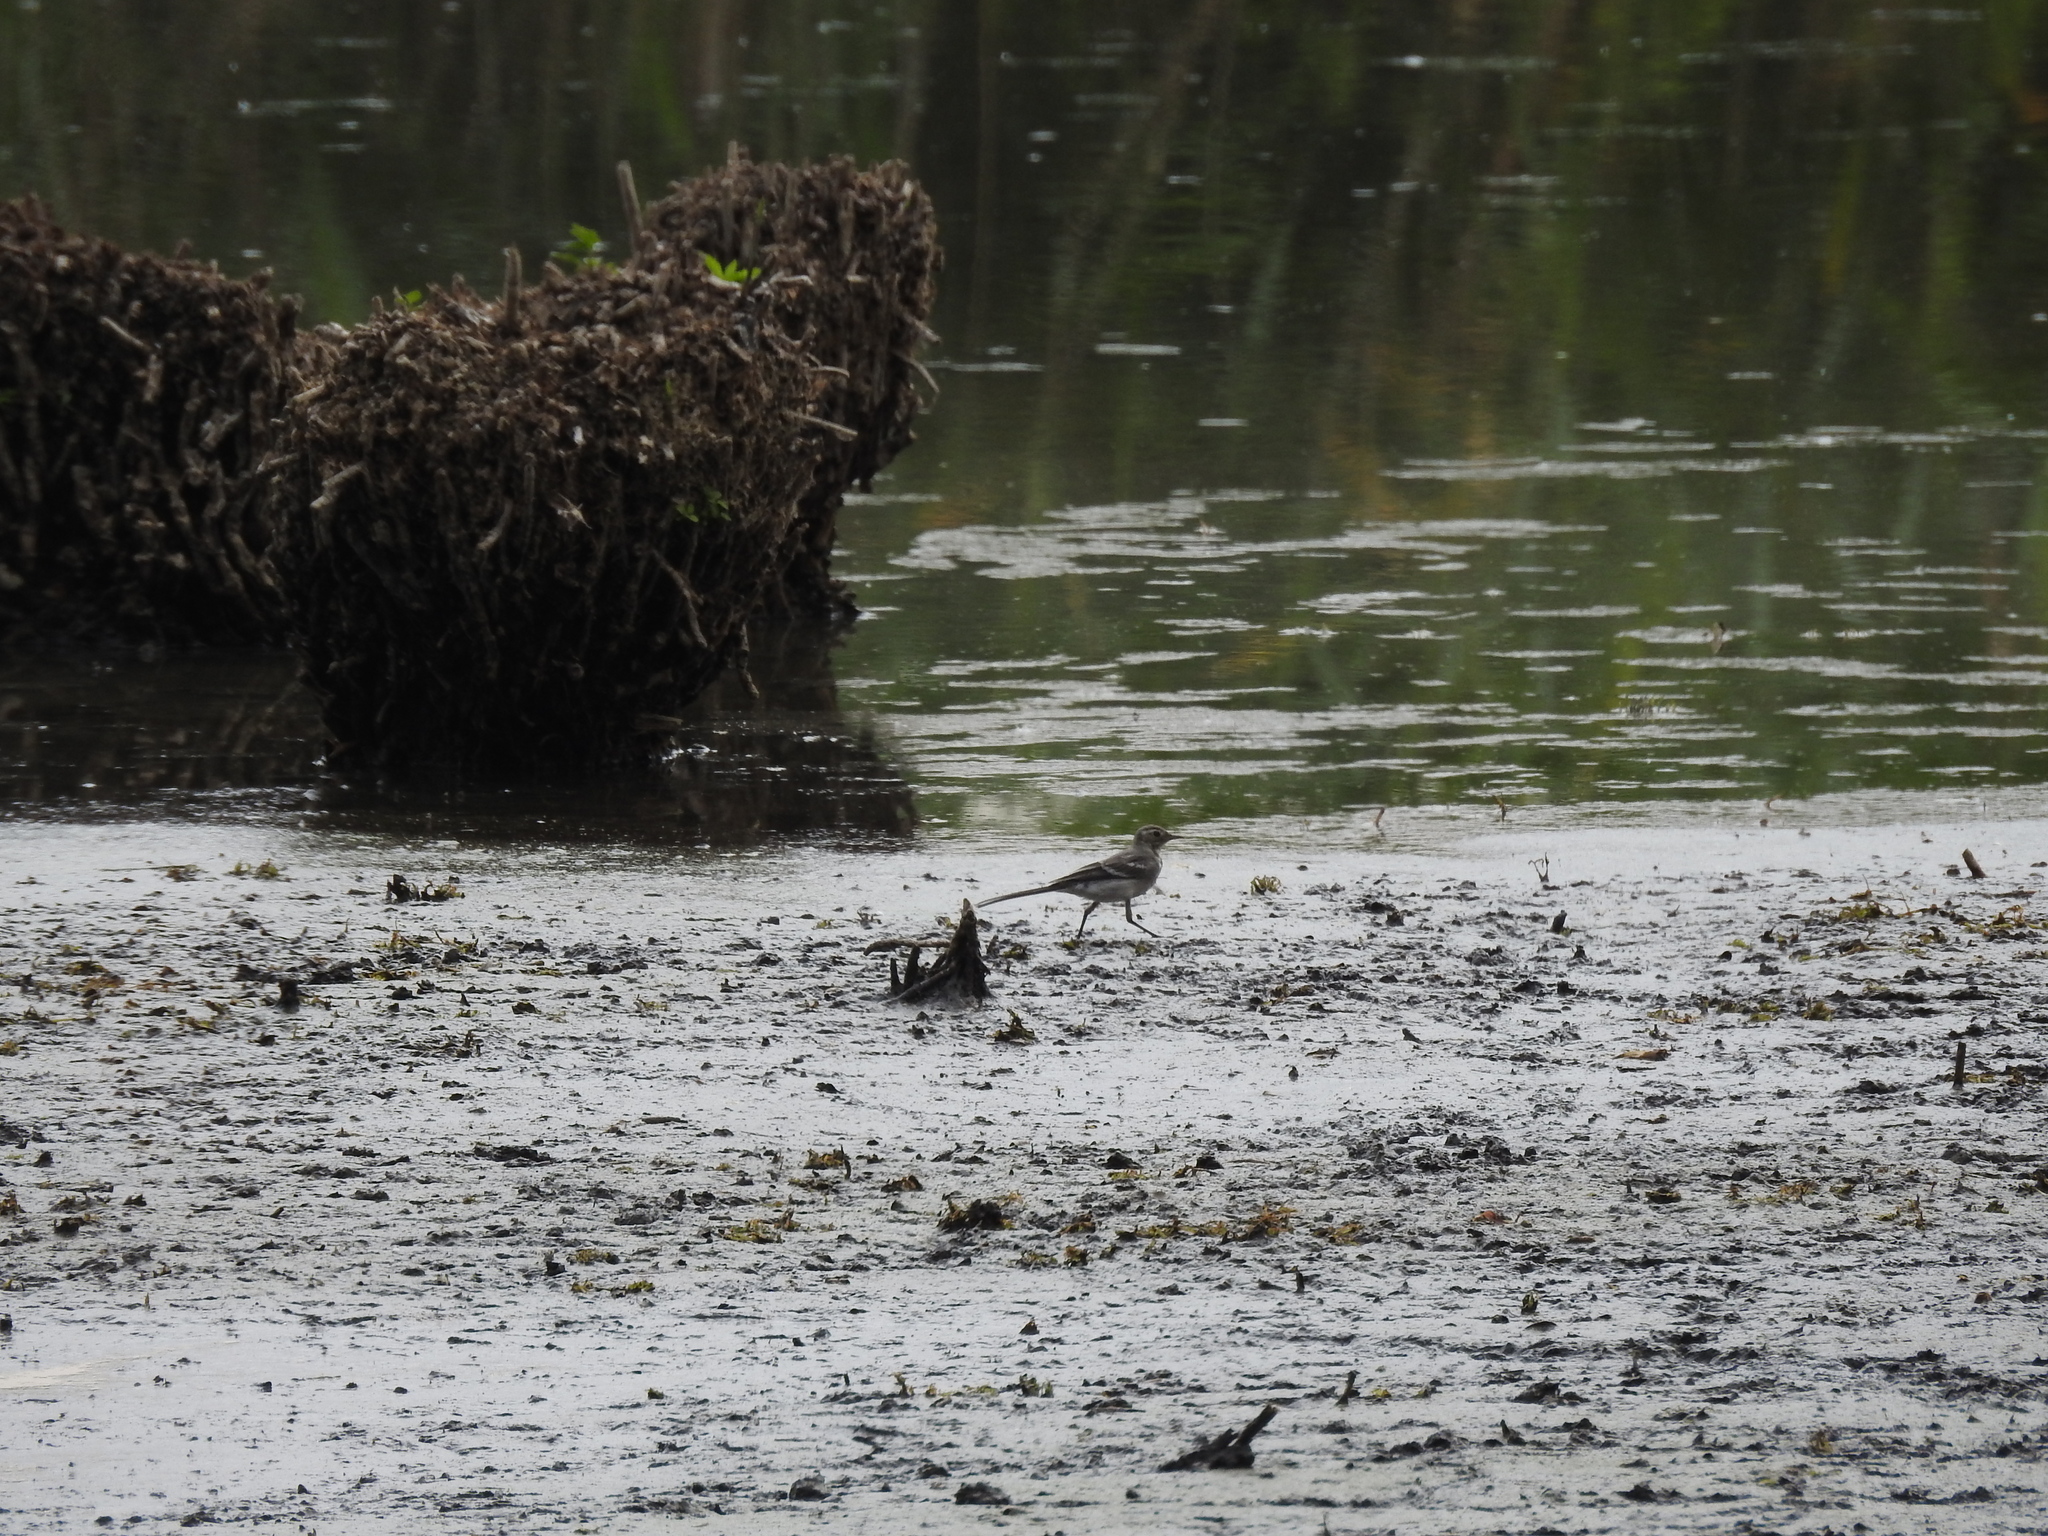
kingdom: Animalia
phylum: Chordata
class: Aves
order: Passeriformes
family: Motacillidae
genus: Motacilla
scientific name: Motacilla alba
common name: White wagtail
